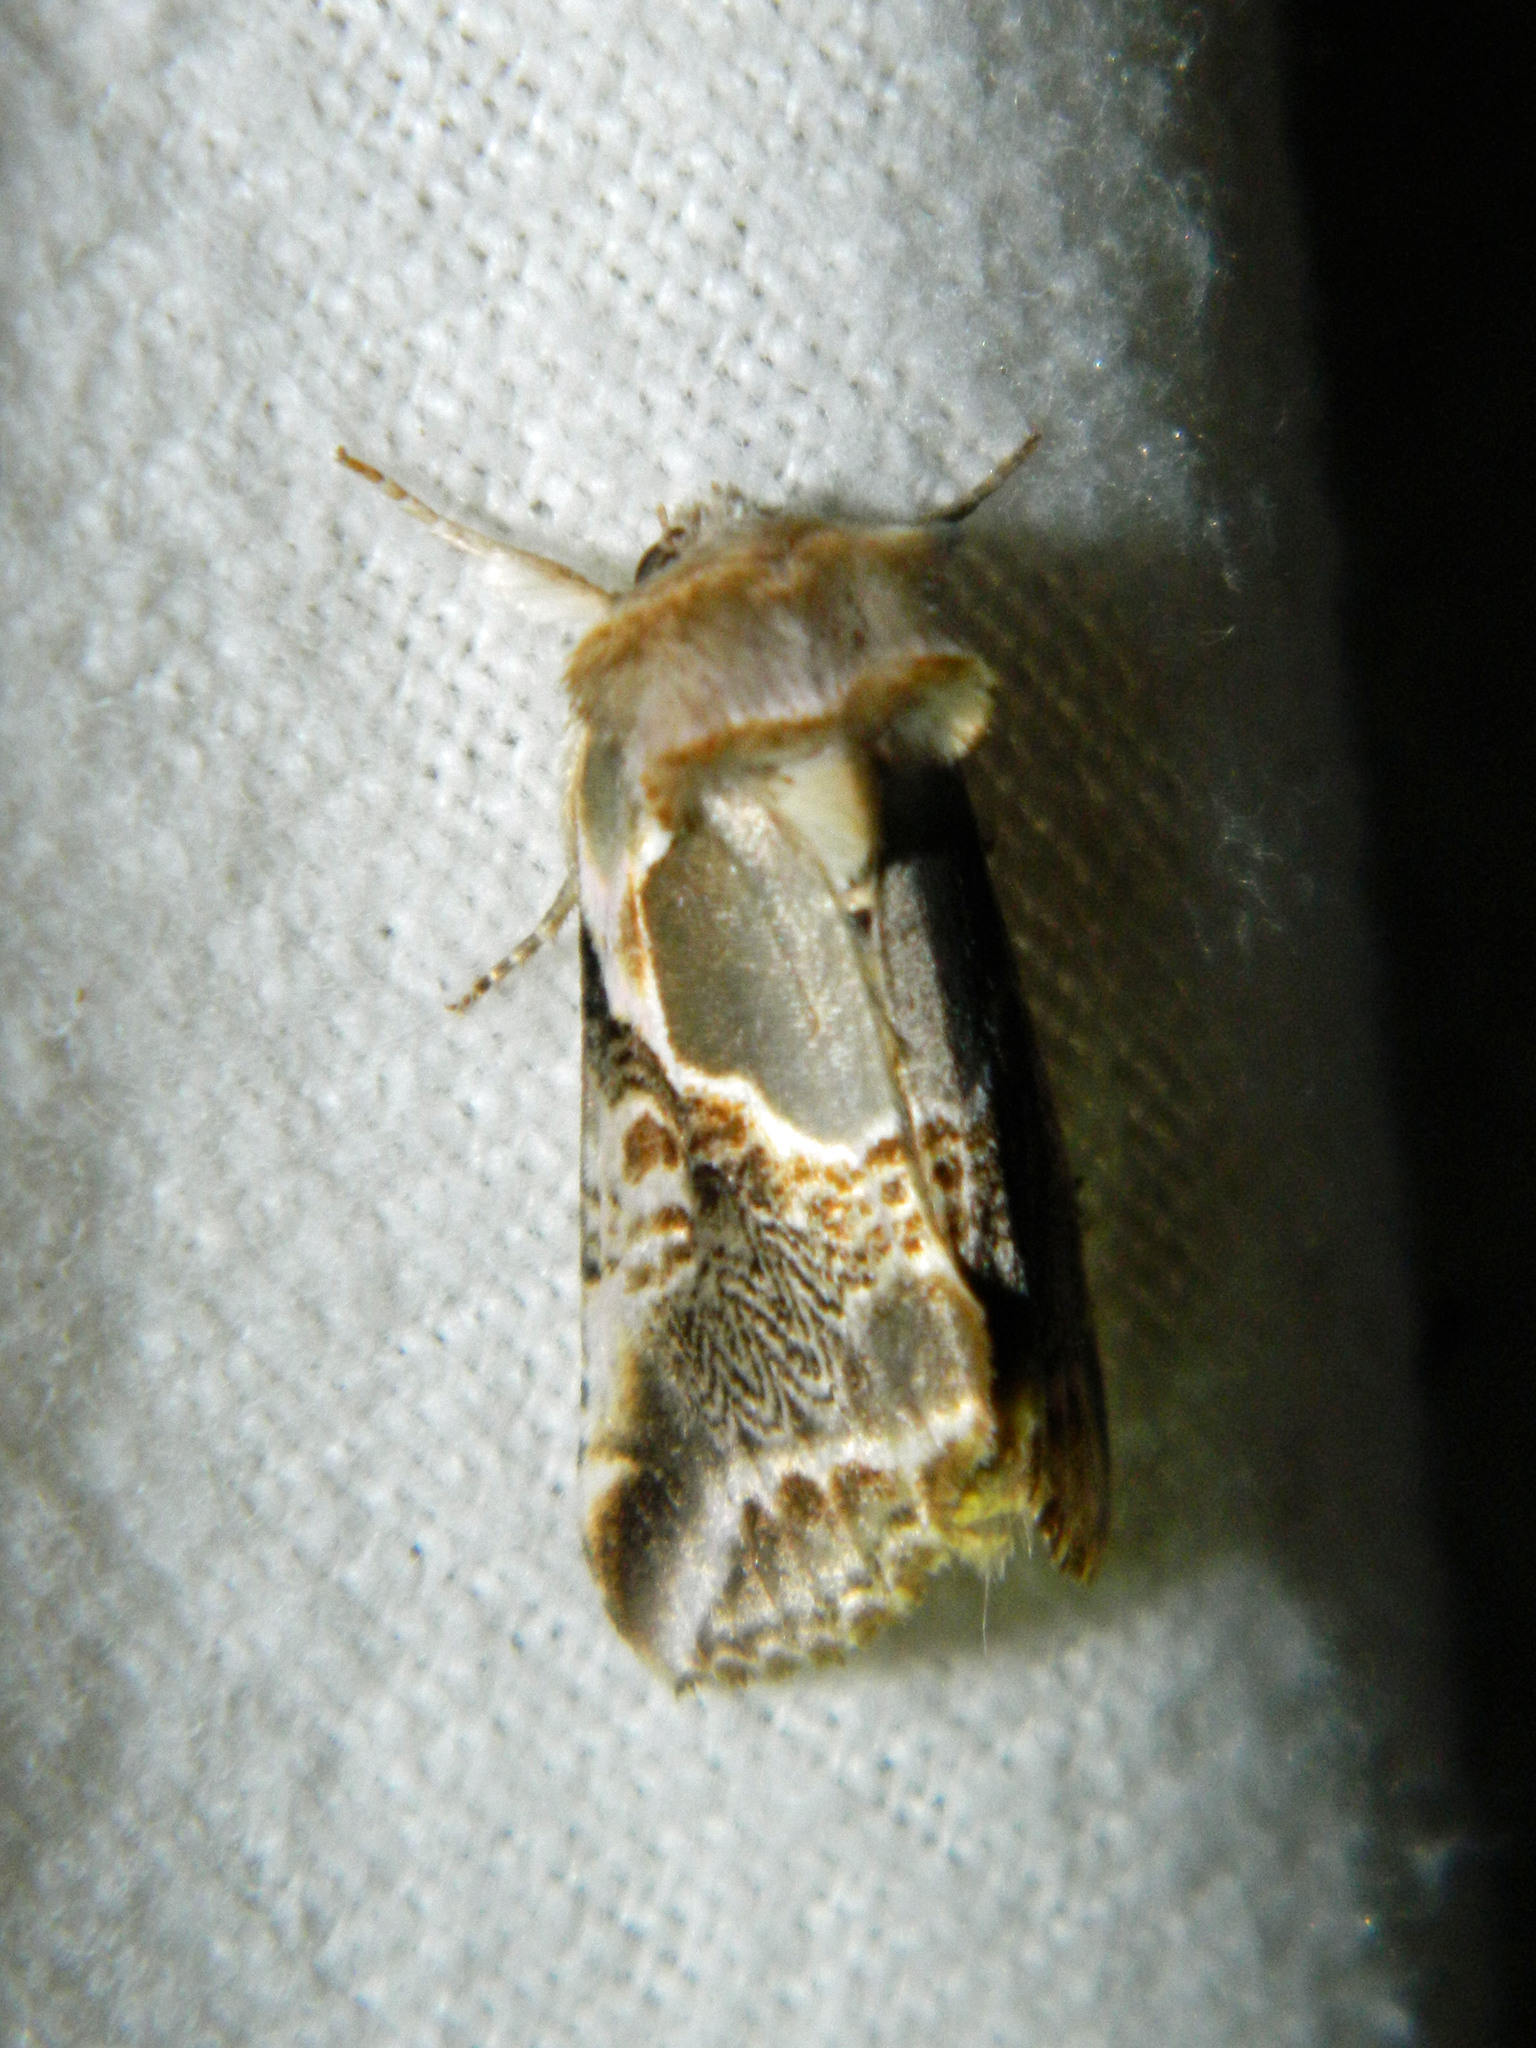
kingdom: Animalia
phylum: Arthropoda
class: Insecta
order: Lepidoptera
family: Drepanidae
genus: Habrosyne
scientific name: Habrosyne scripta
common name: Lettered habrosyne moth
